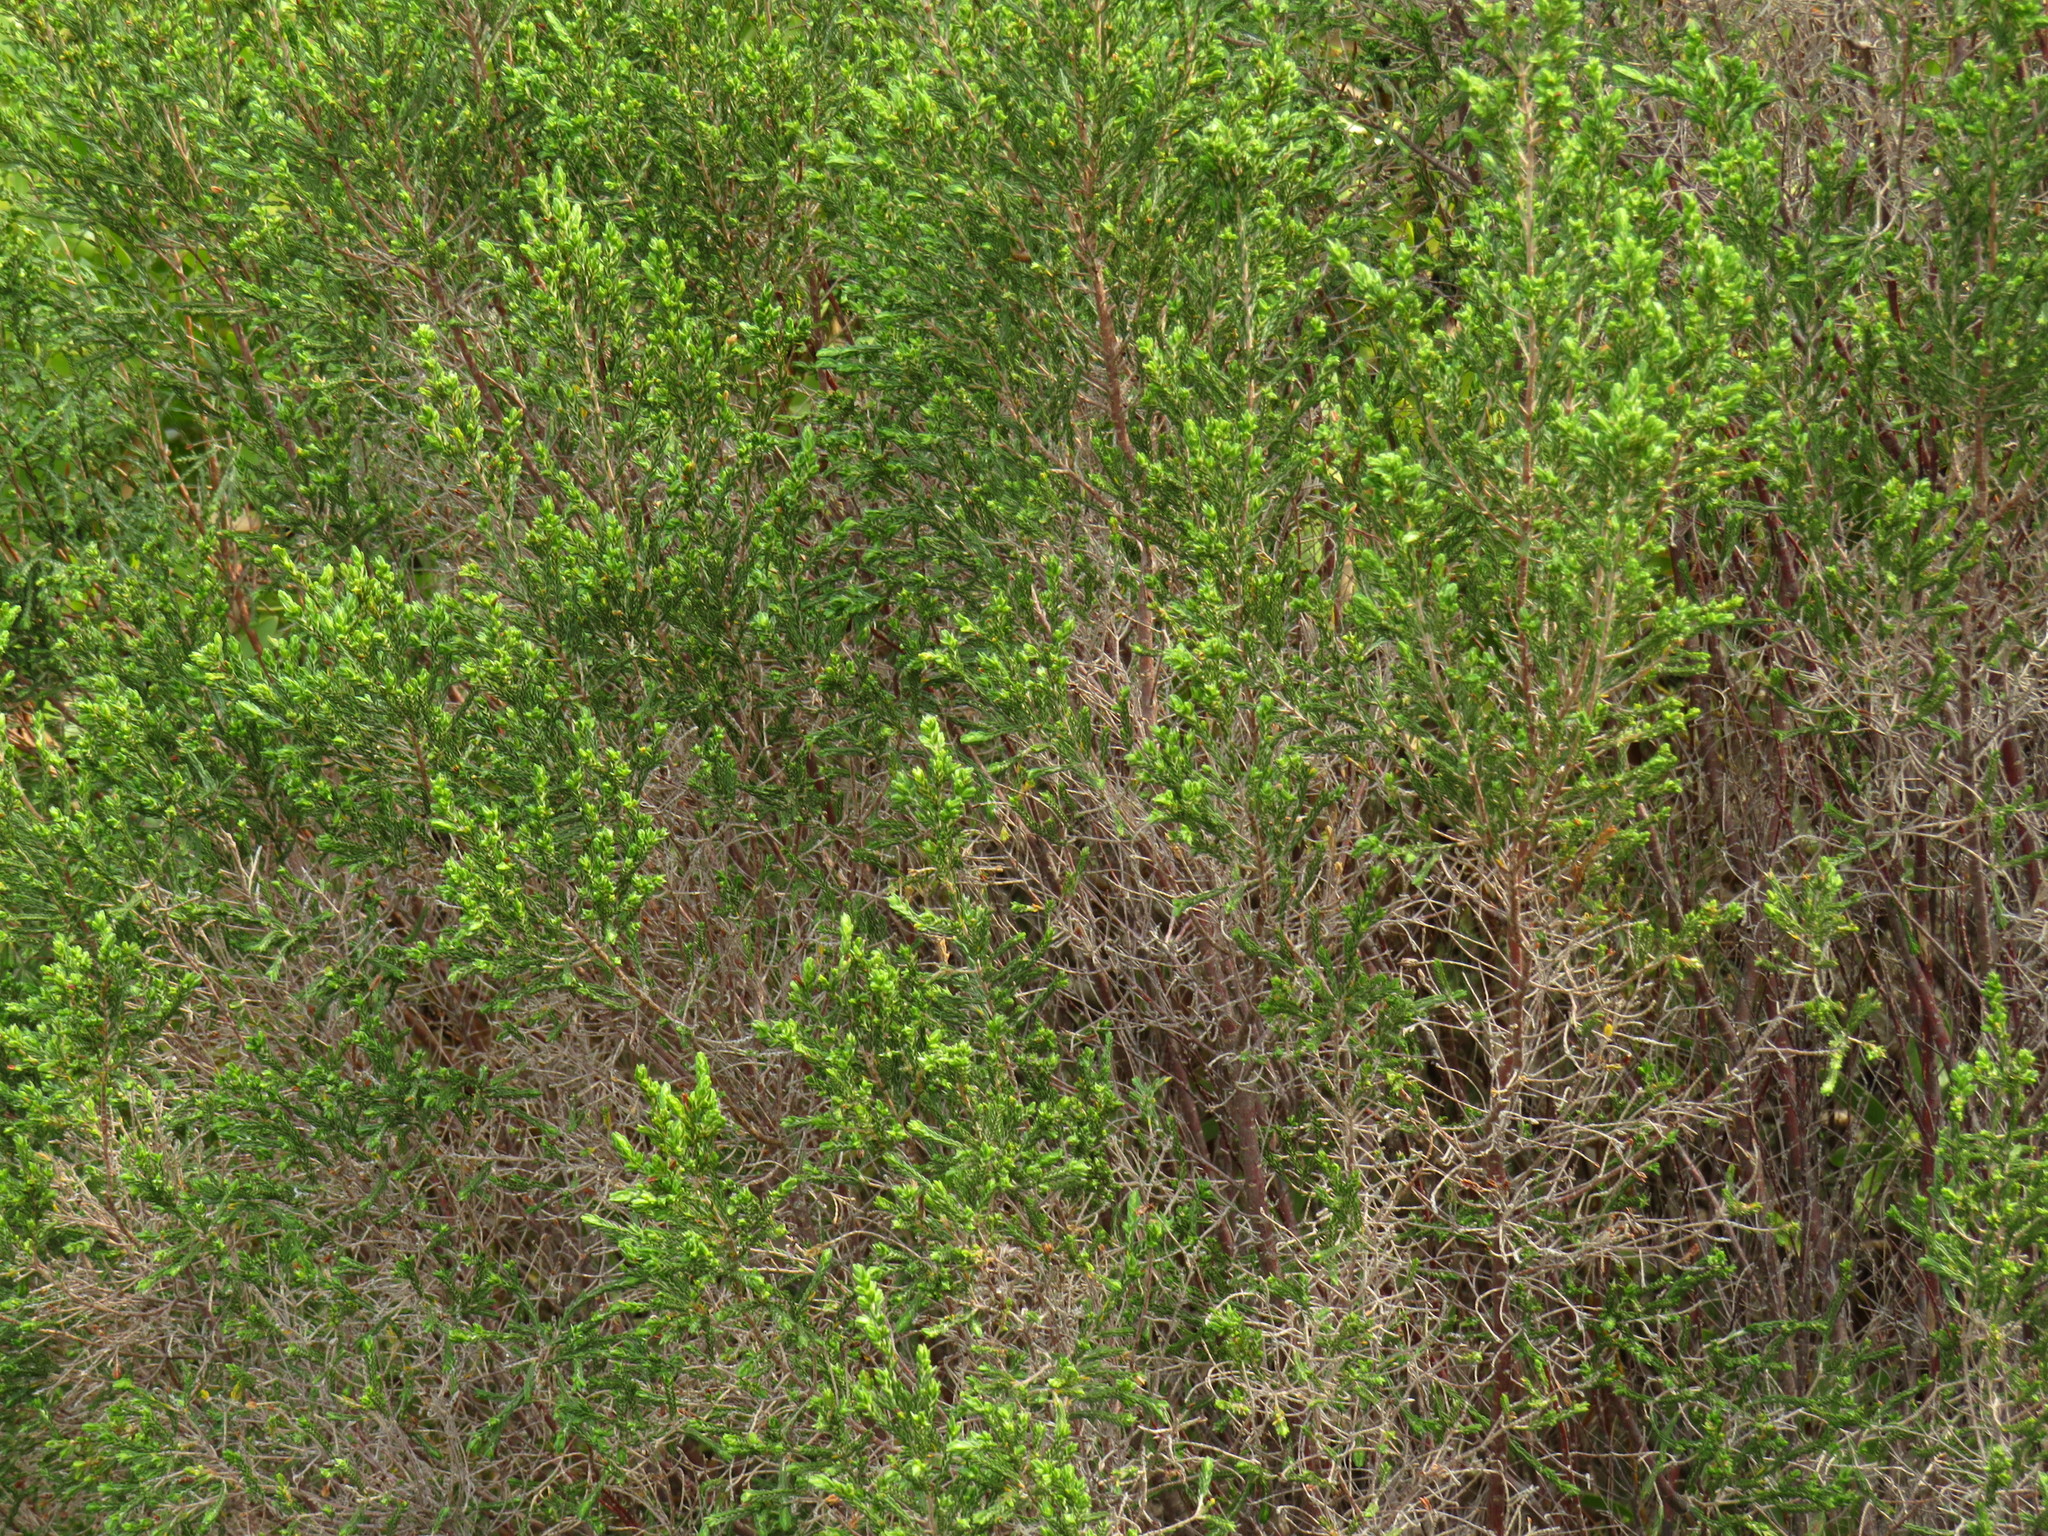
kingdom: Plantae
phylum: Tracheophyta
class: Magnoliopsida
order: Malvales
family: Thymelaeaceae
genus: Passerina
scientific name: Passerina corymbosa
